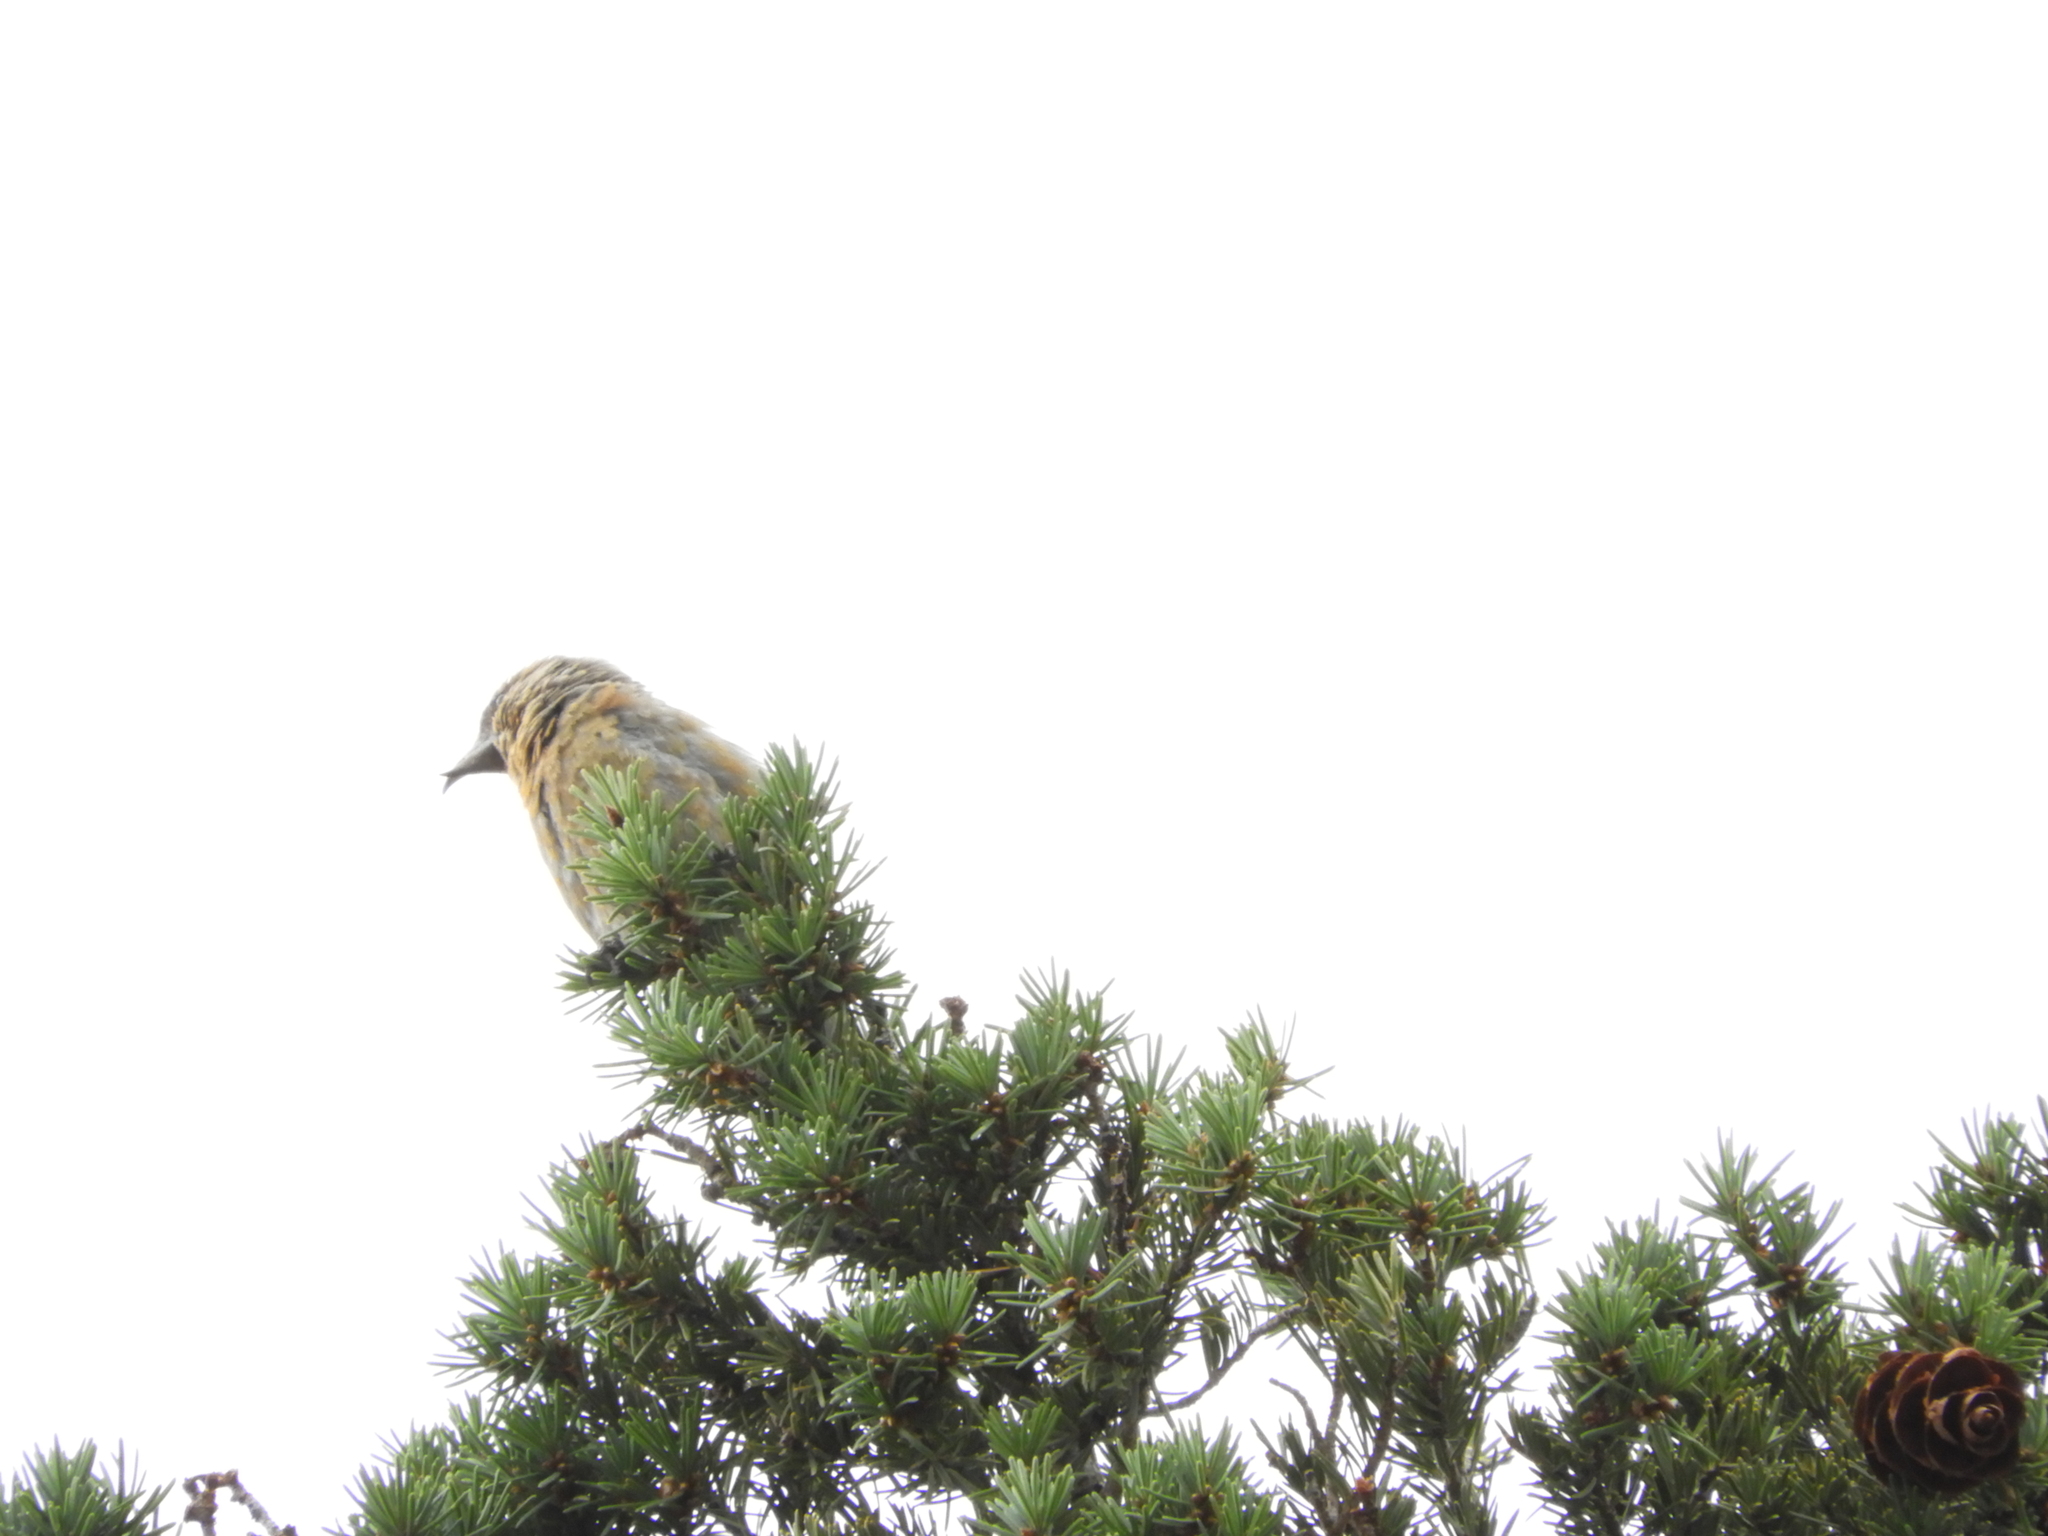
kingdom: Animalia
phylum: Chordata
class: Aves
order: Passeriformes
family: Fringillidae
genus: Loxia
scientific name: Loxia curvirostra
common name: Red crossbill
